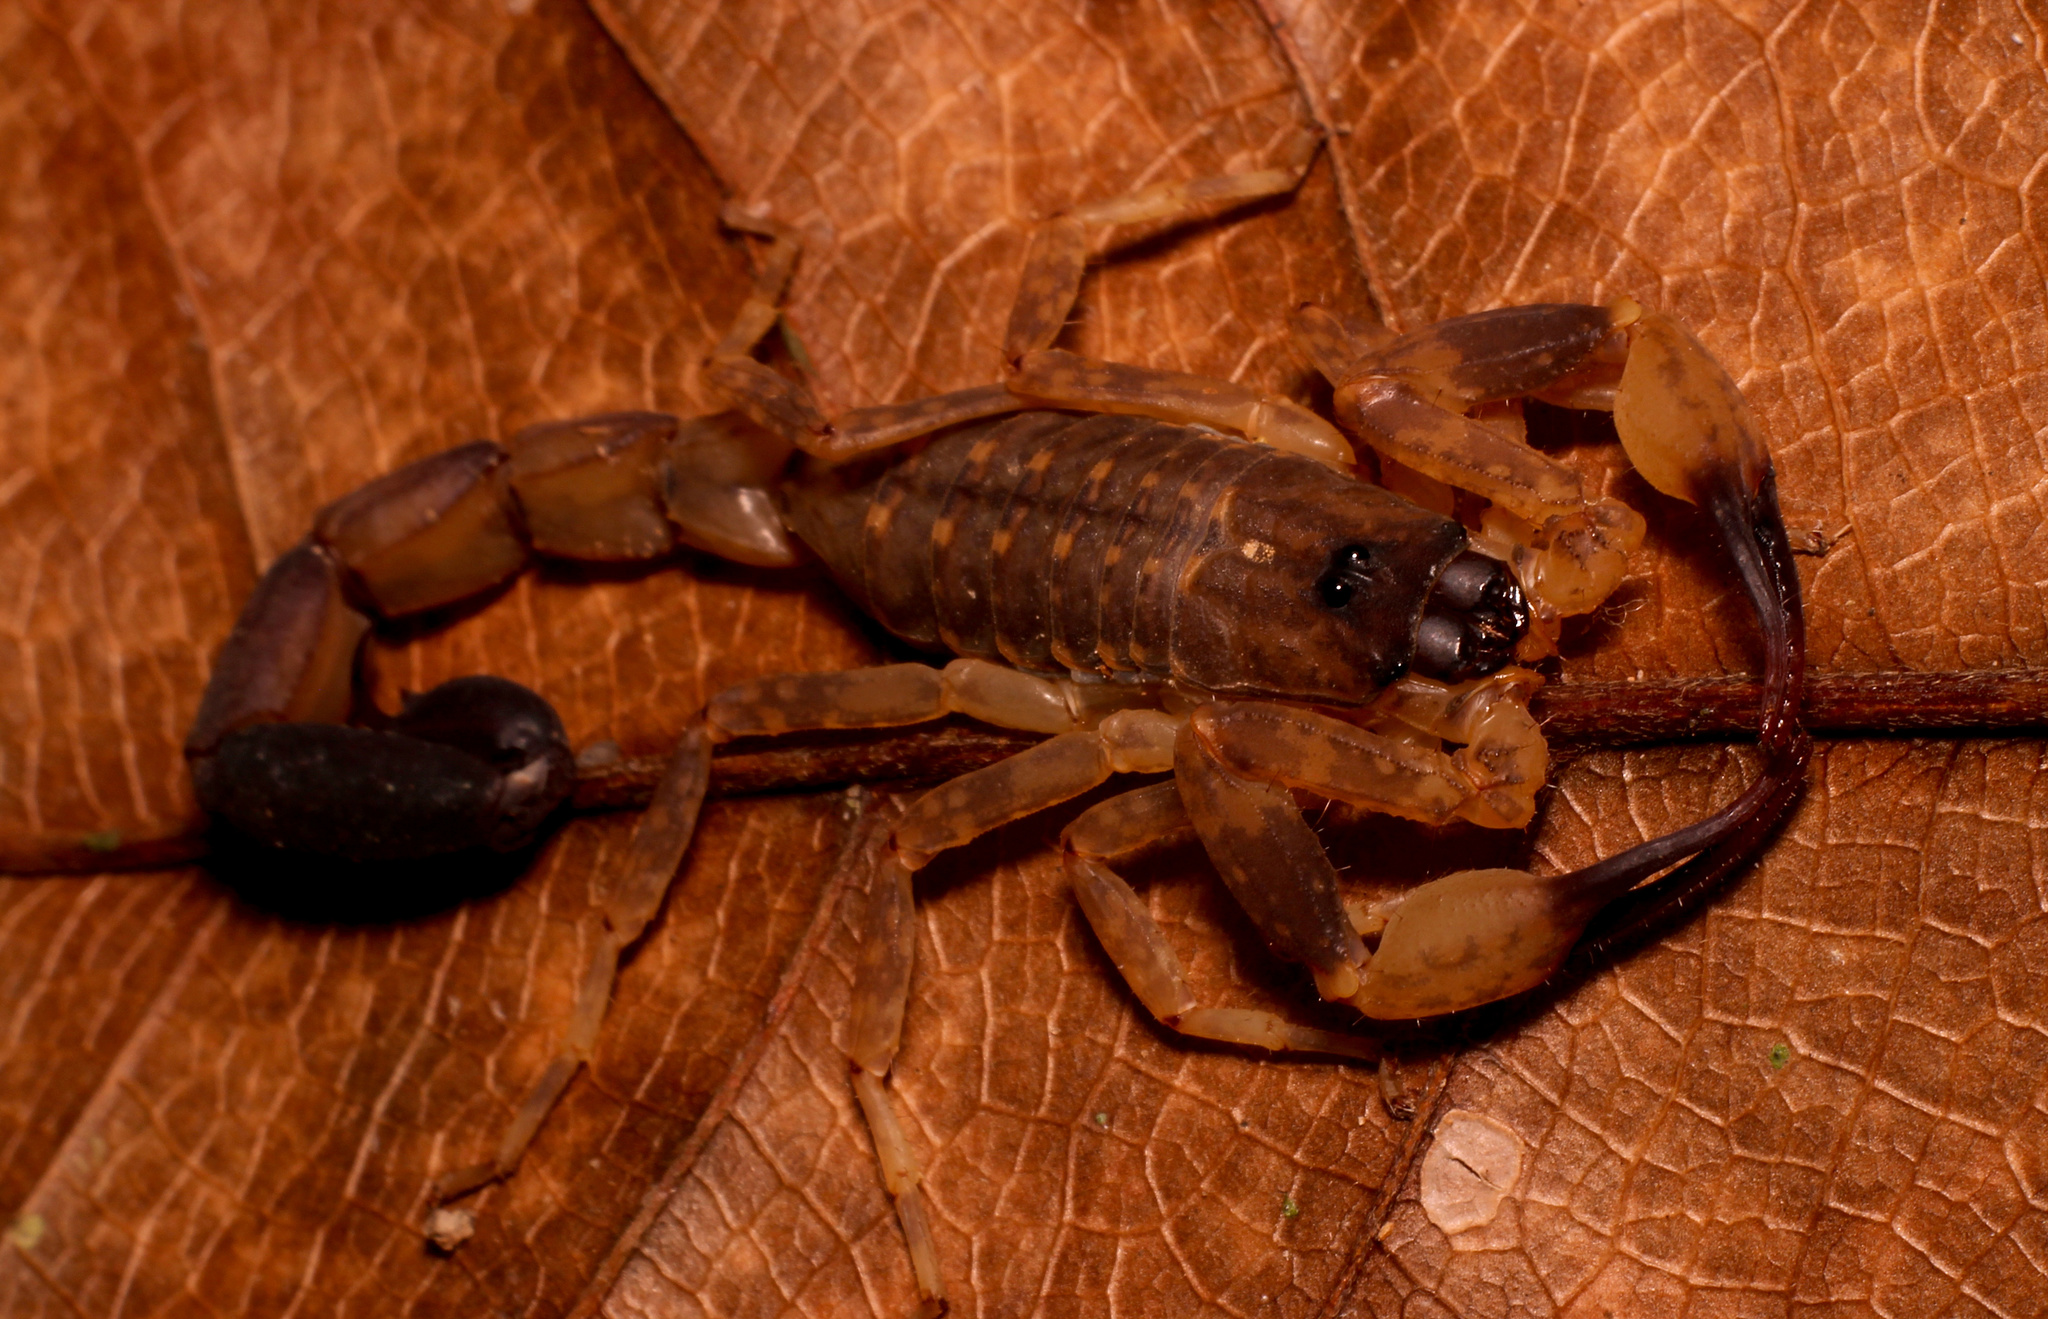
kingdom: Animalia
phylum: Arthropoda
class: Arachnida
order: Scorpiones
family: Buthidae
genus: Lychas
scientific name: Lychas mucronatus
